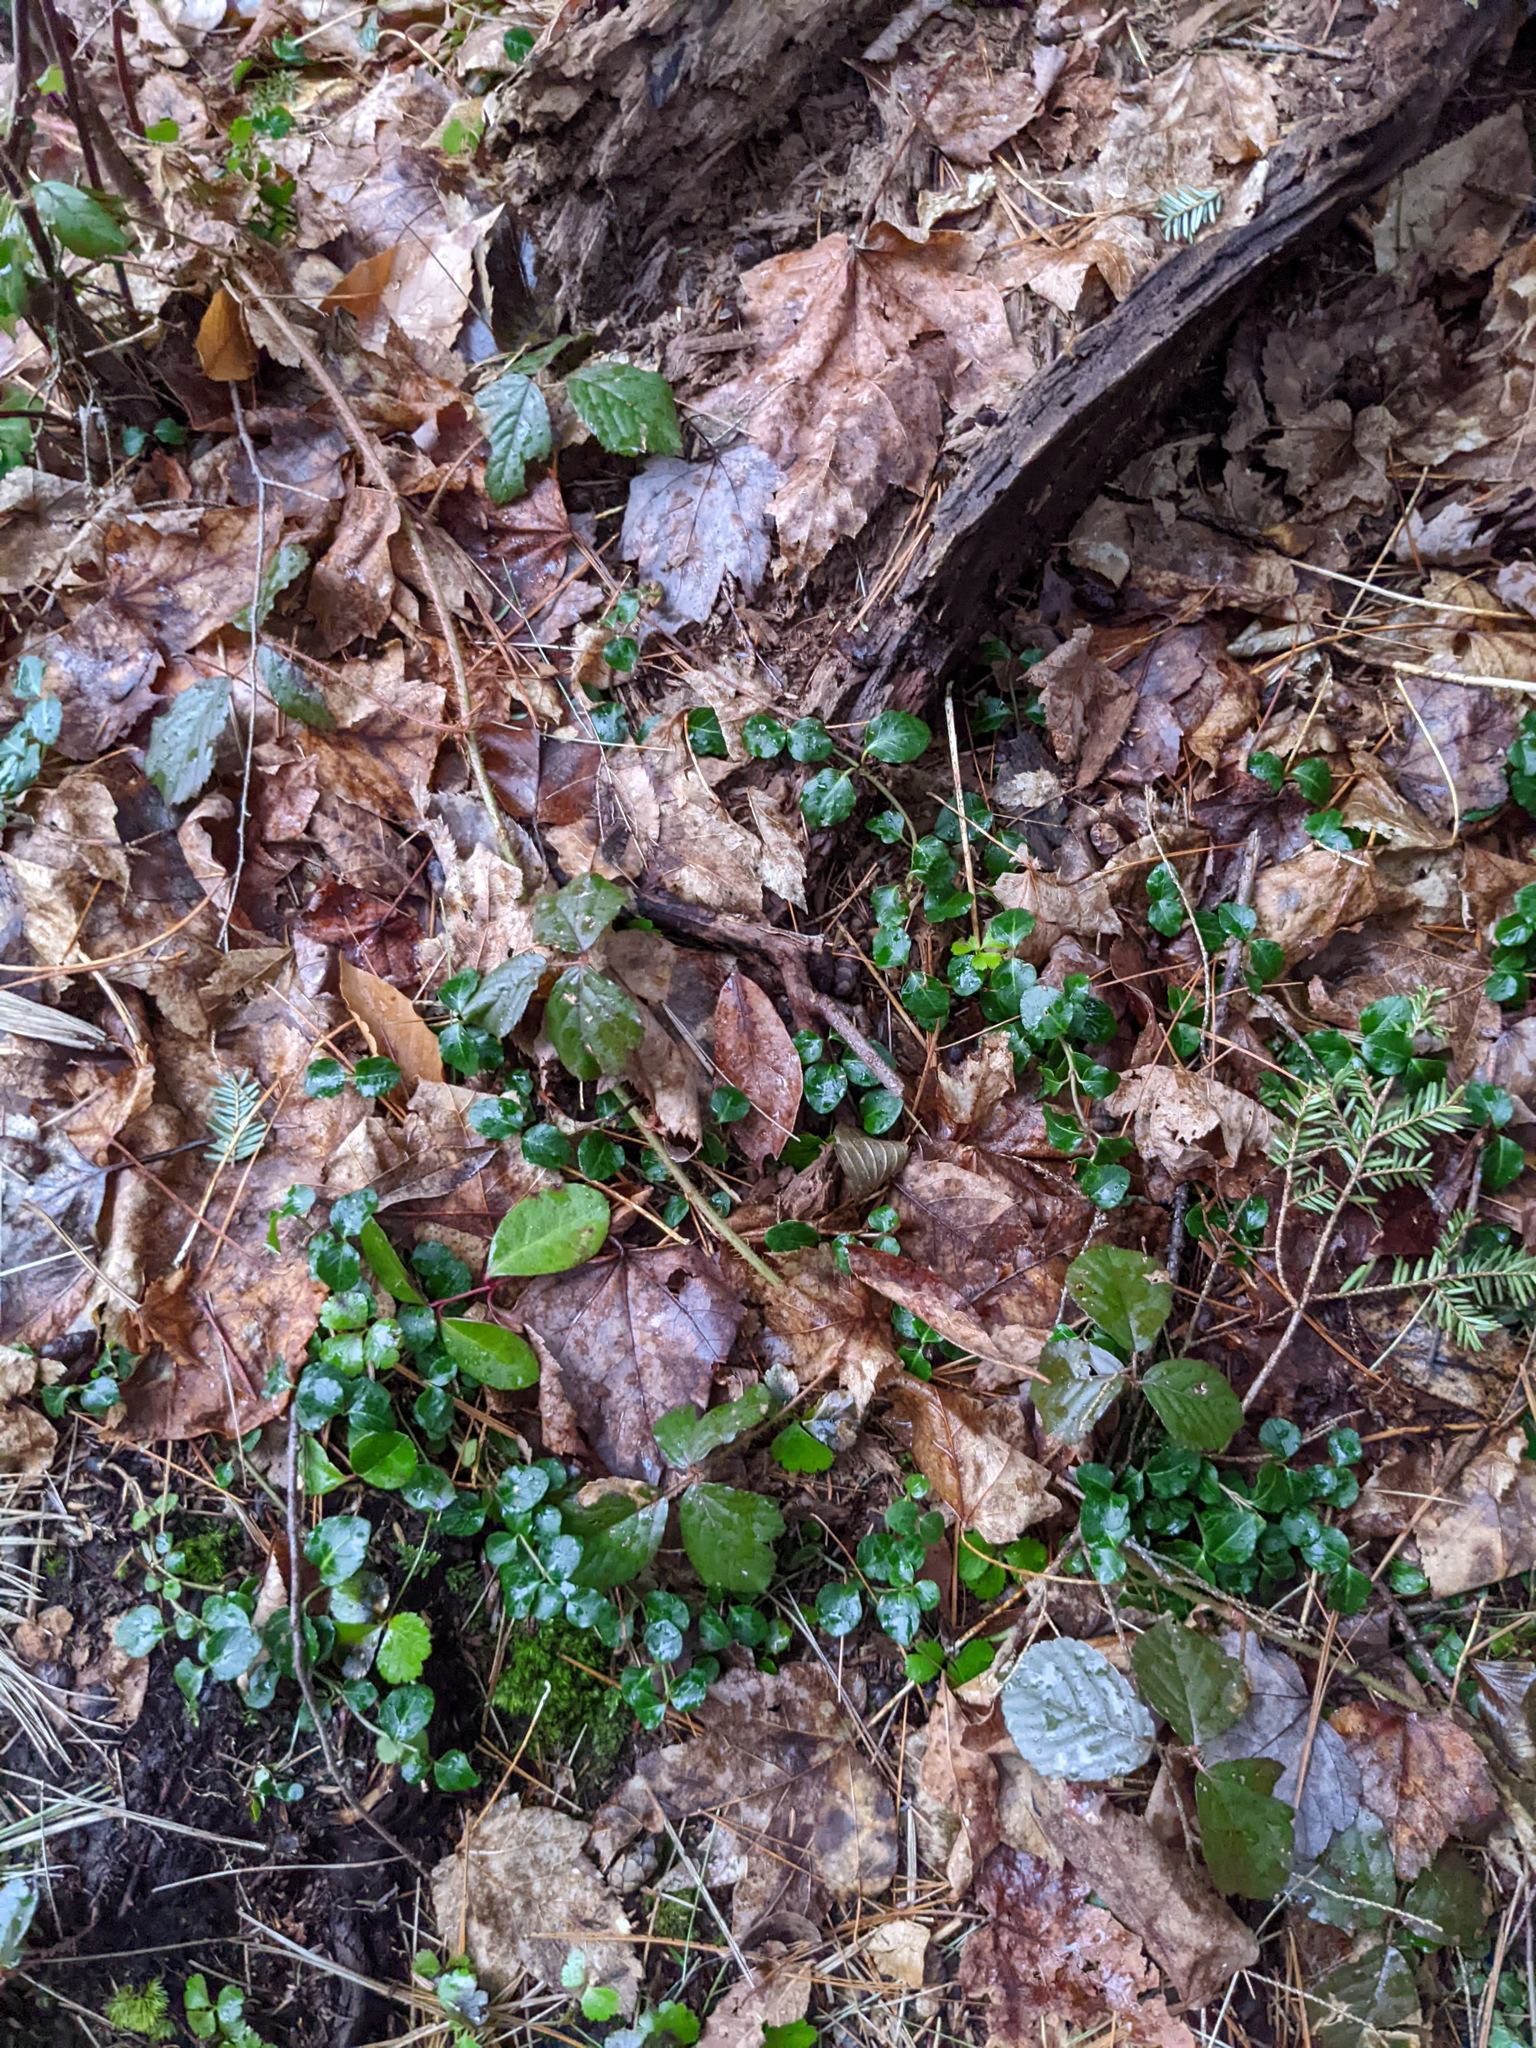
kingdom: Plantae
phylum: Tracheophyta
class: Magnoliopsida
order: Gentianales
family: Rubiaceae
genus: Mitchella
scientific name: Mitchella repens
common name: Partridge-berry
